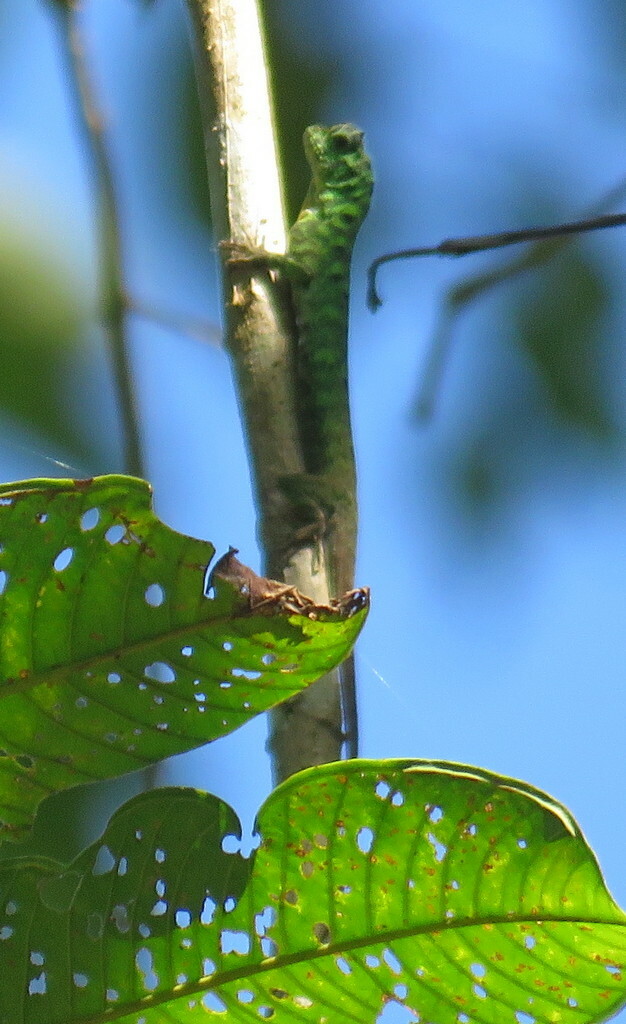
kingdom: Animalia
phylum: Chordata
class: Squamata
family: Agamidae
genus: Draco
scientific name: Draco cornutus
